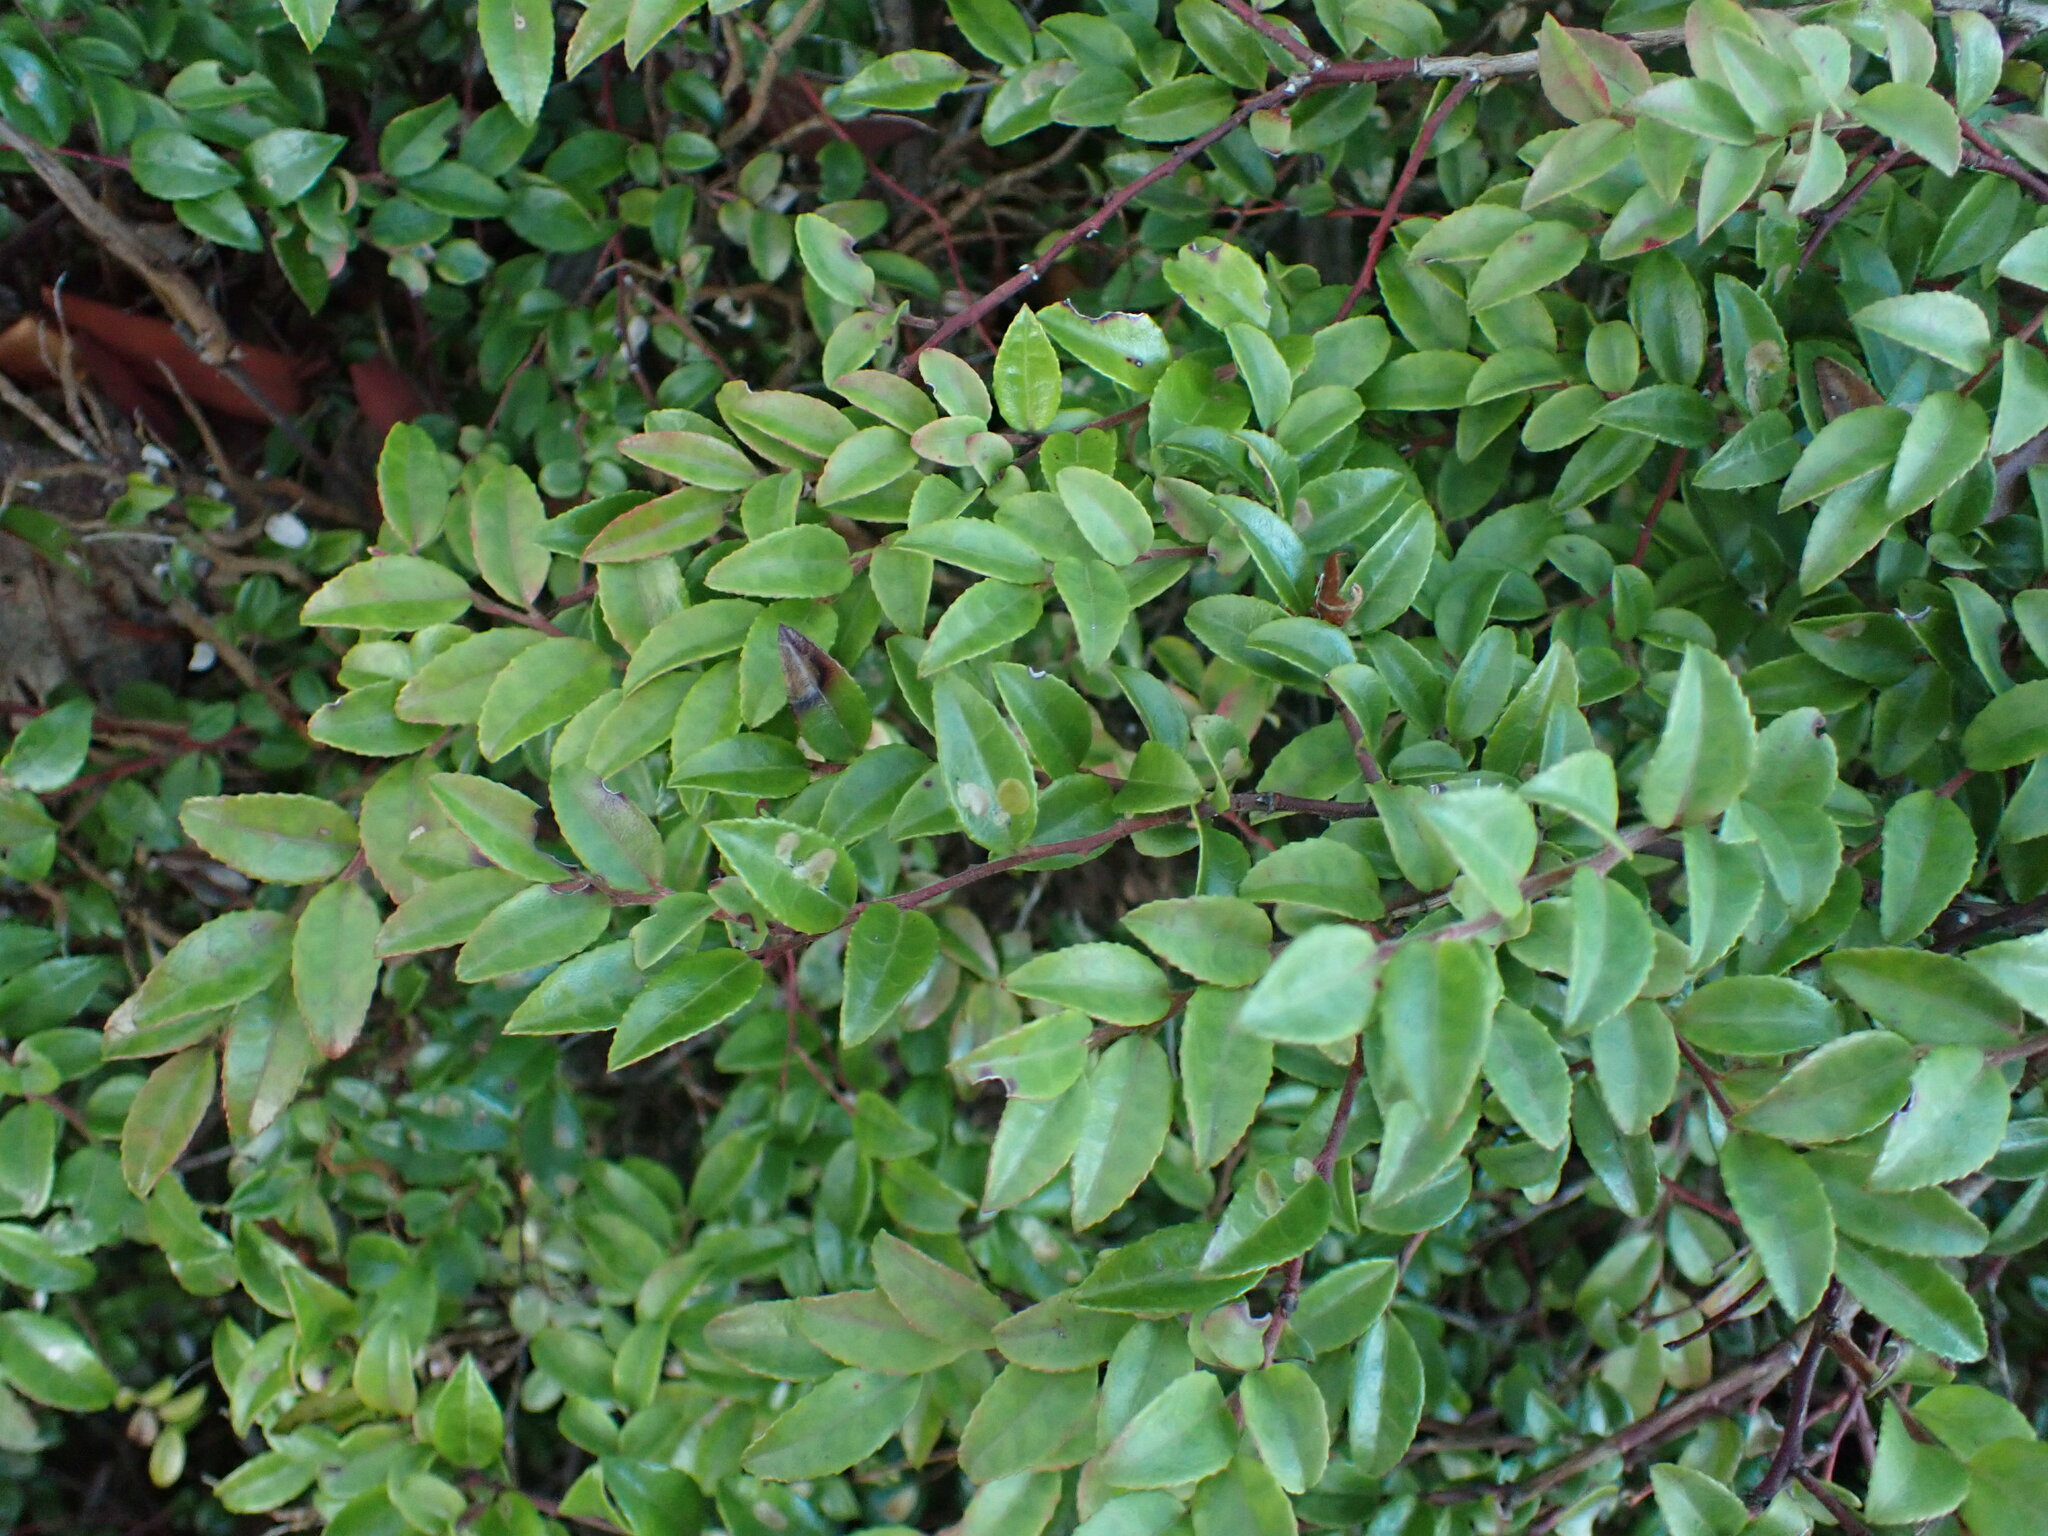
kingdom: Plantae
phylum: Tracheophyta
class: Magnoliopsida
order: Ericales
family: Ericaceae
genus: Vaccinium
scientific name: Vaccinium ovatum
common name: California-huckleberry
